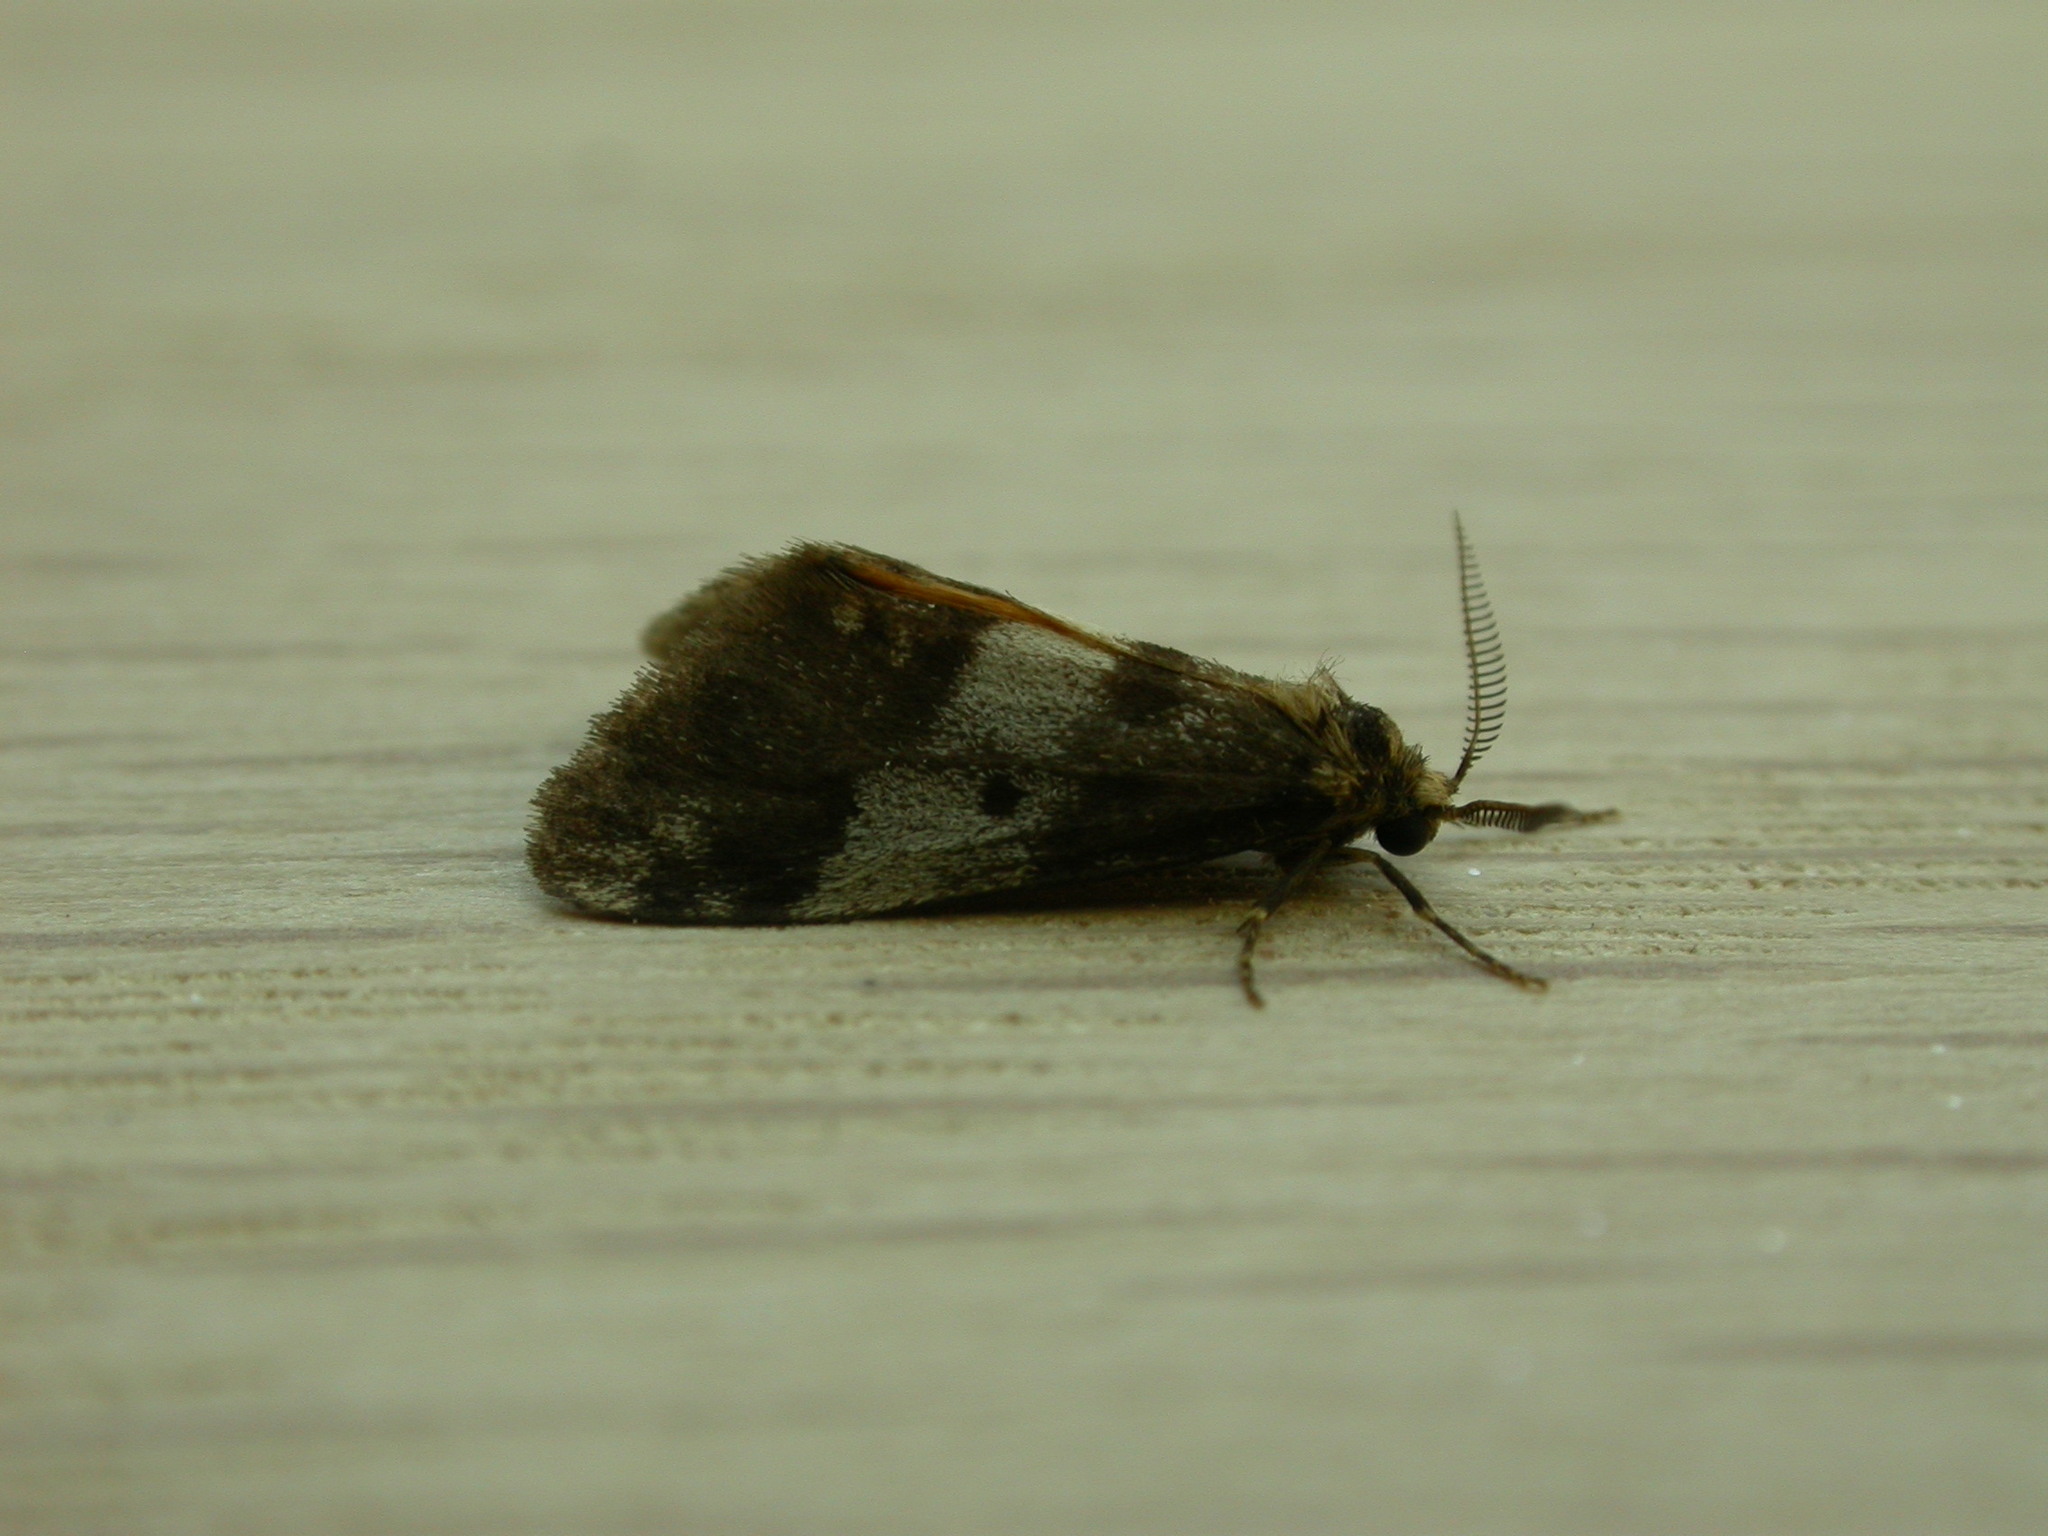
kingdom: Animalia
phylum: Arthropoda
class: Insecta
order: Lepidoptera
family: Erebidae
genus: Anestia
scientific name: Anestia semiochrea
